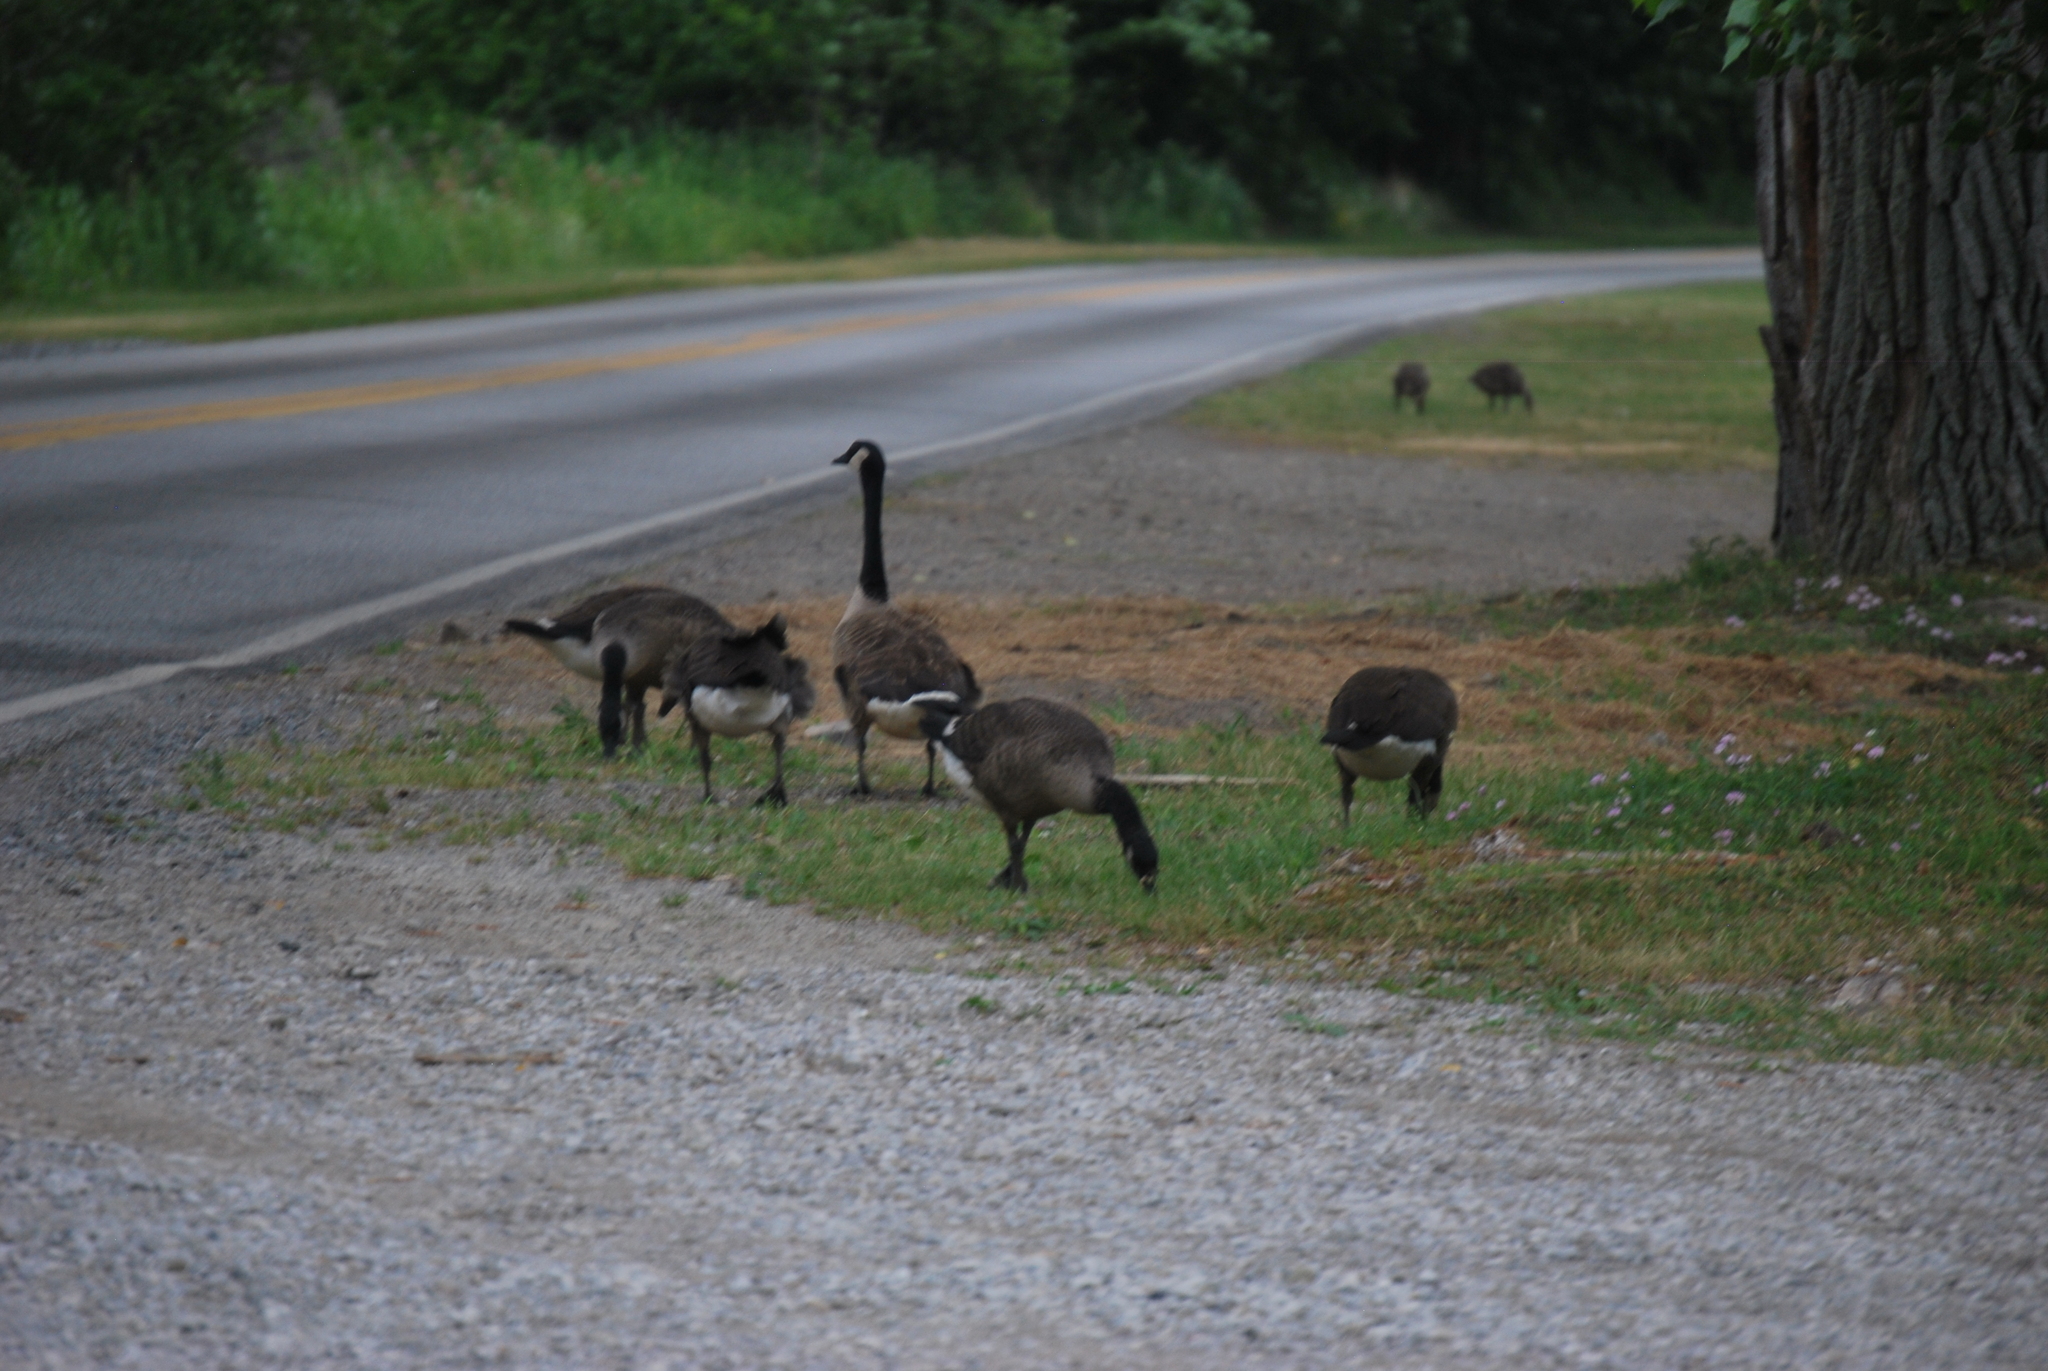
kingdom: Animalia
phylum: Chordata
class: Aves
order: Anseriformes
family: Anatidae
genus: Branta
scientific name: Branta canadensis
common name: Canada goose
